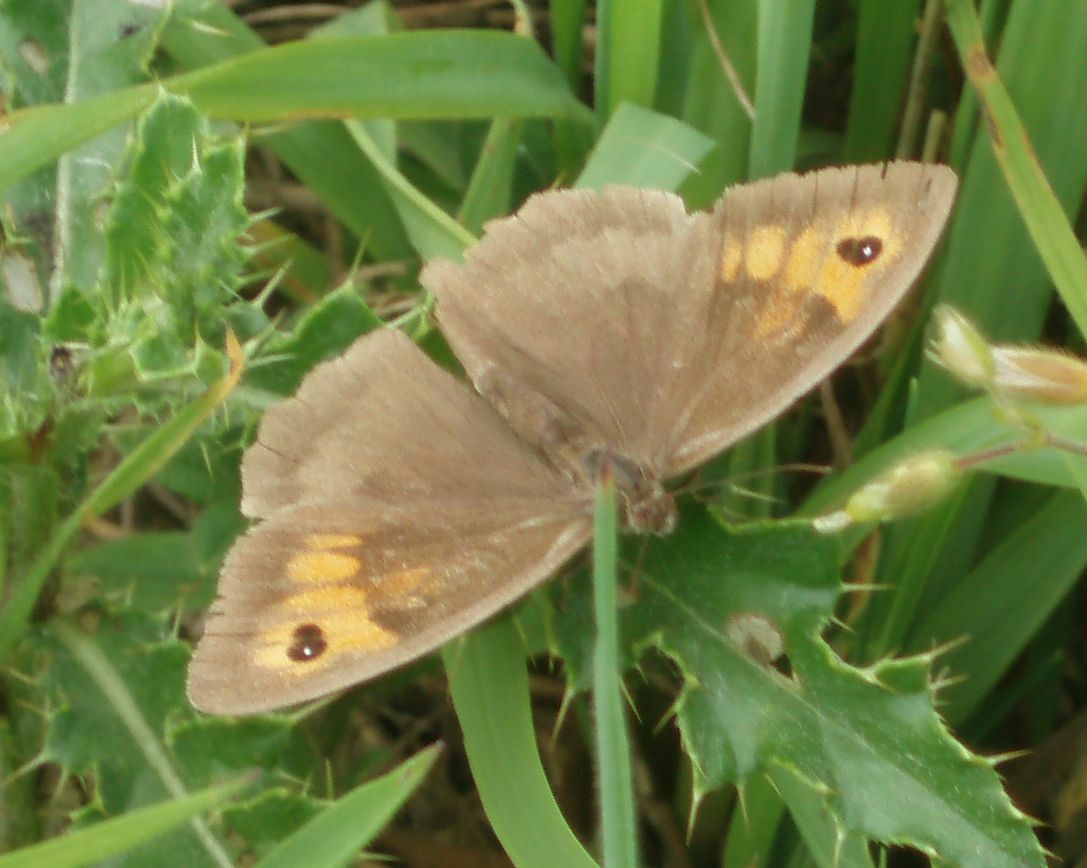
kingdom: Animalia
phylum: Arthropoda
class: Insecta
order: Lepidoptera
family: Nymphalidae
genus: Maniola
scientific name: Maniola jurtina
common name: Meadow brown
